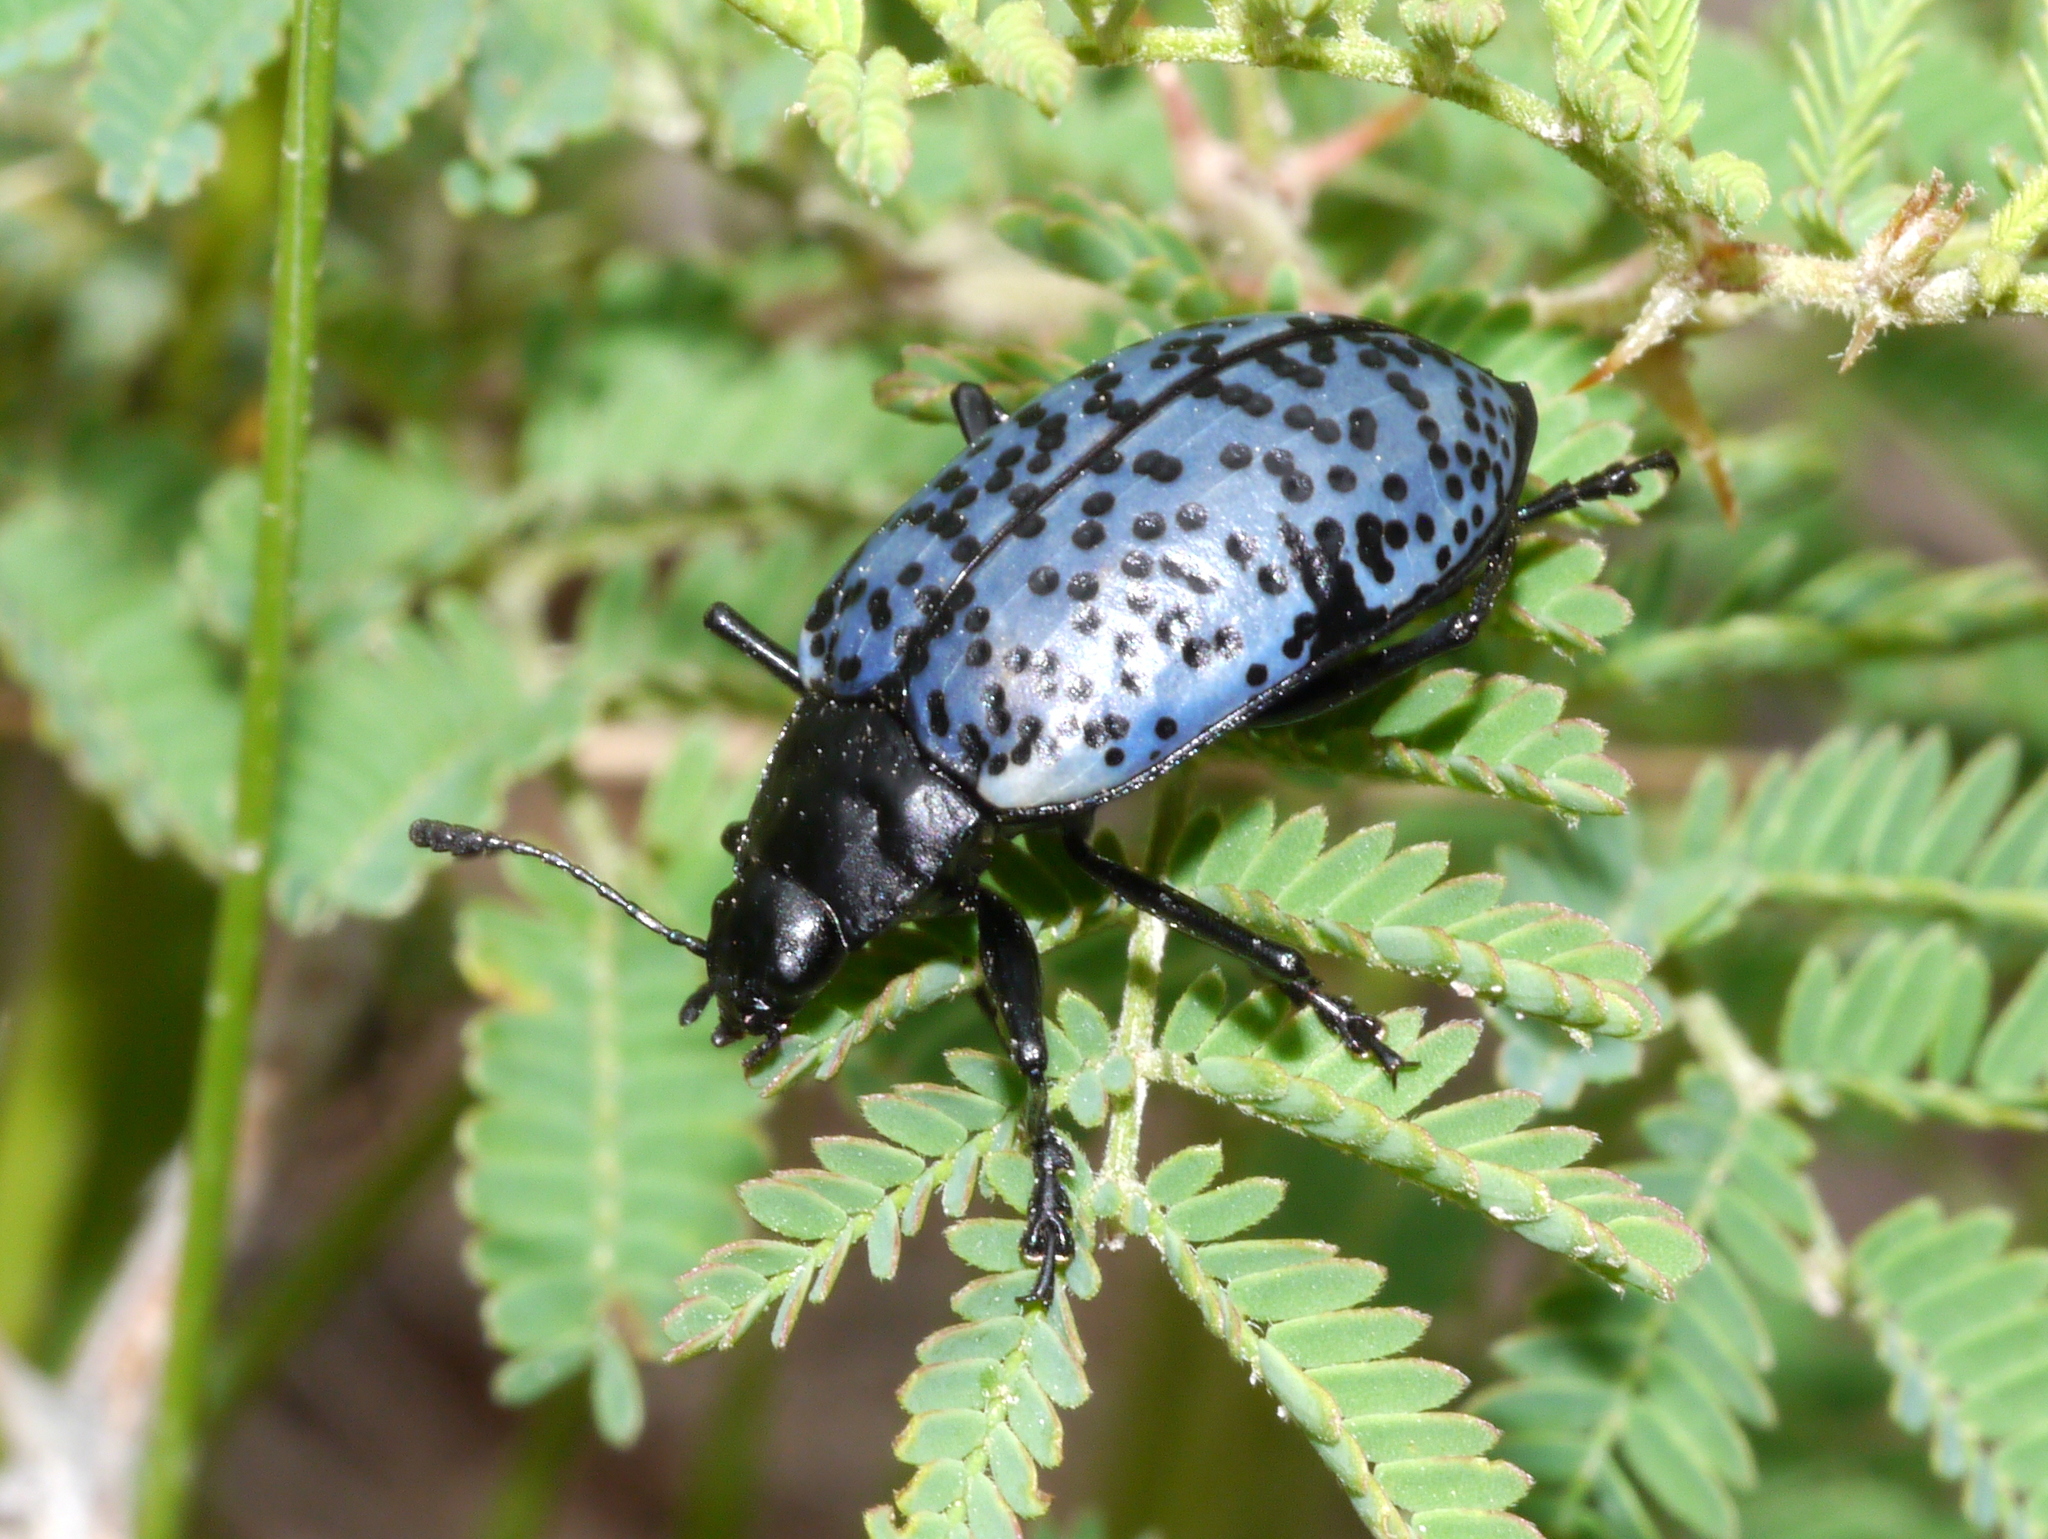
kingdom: Animalia
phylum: Arthropoda
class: Insecta
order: Coleoptera
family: Erotylidae
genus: Gibbifer
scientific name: Gibbifer californicus
